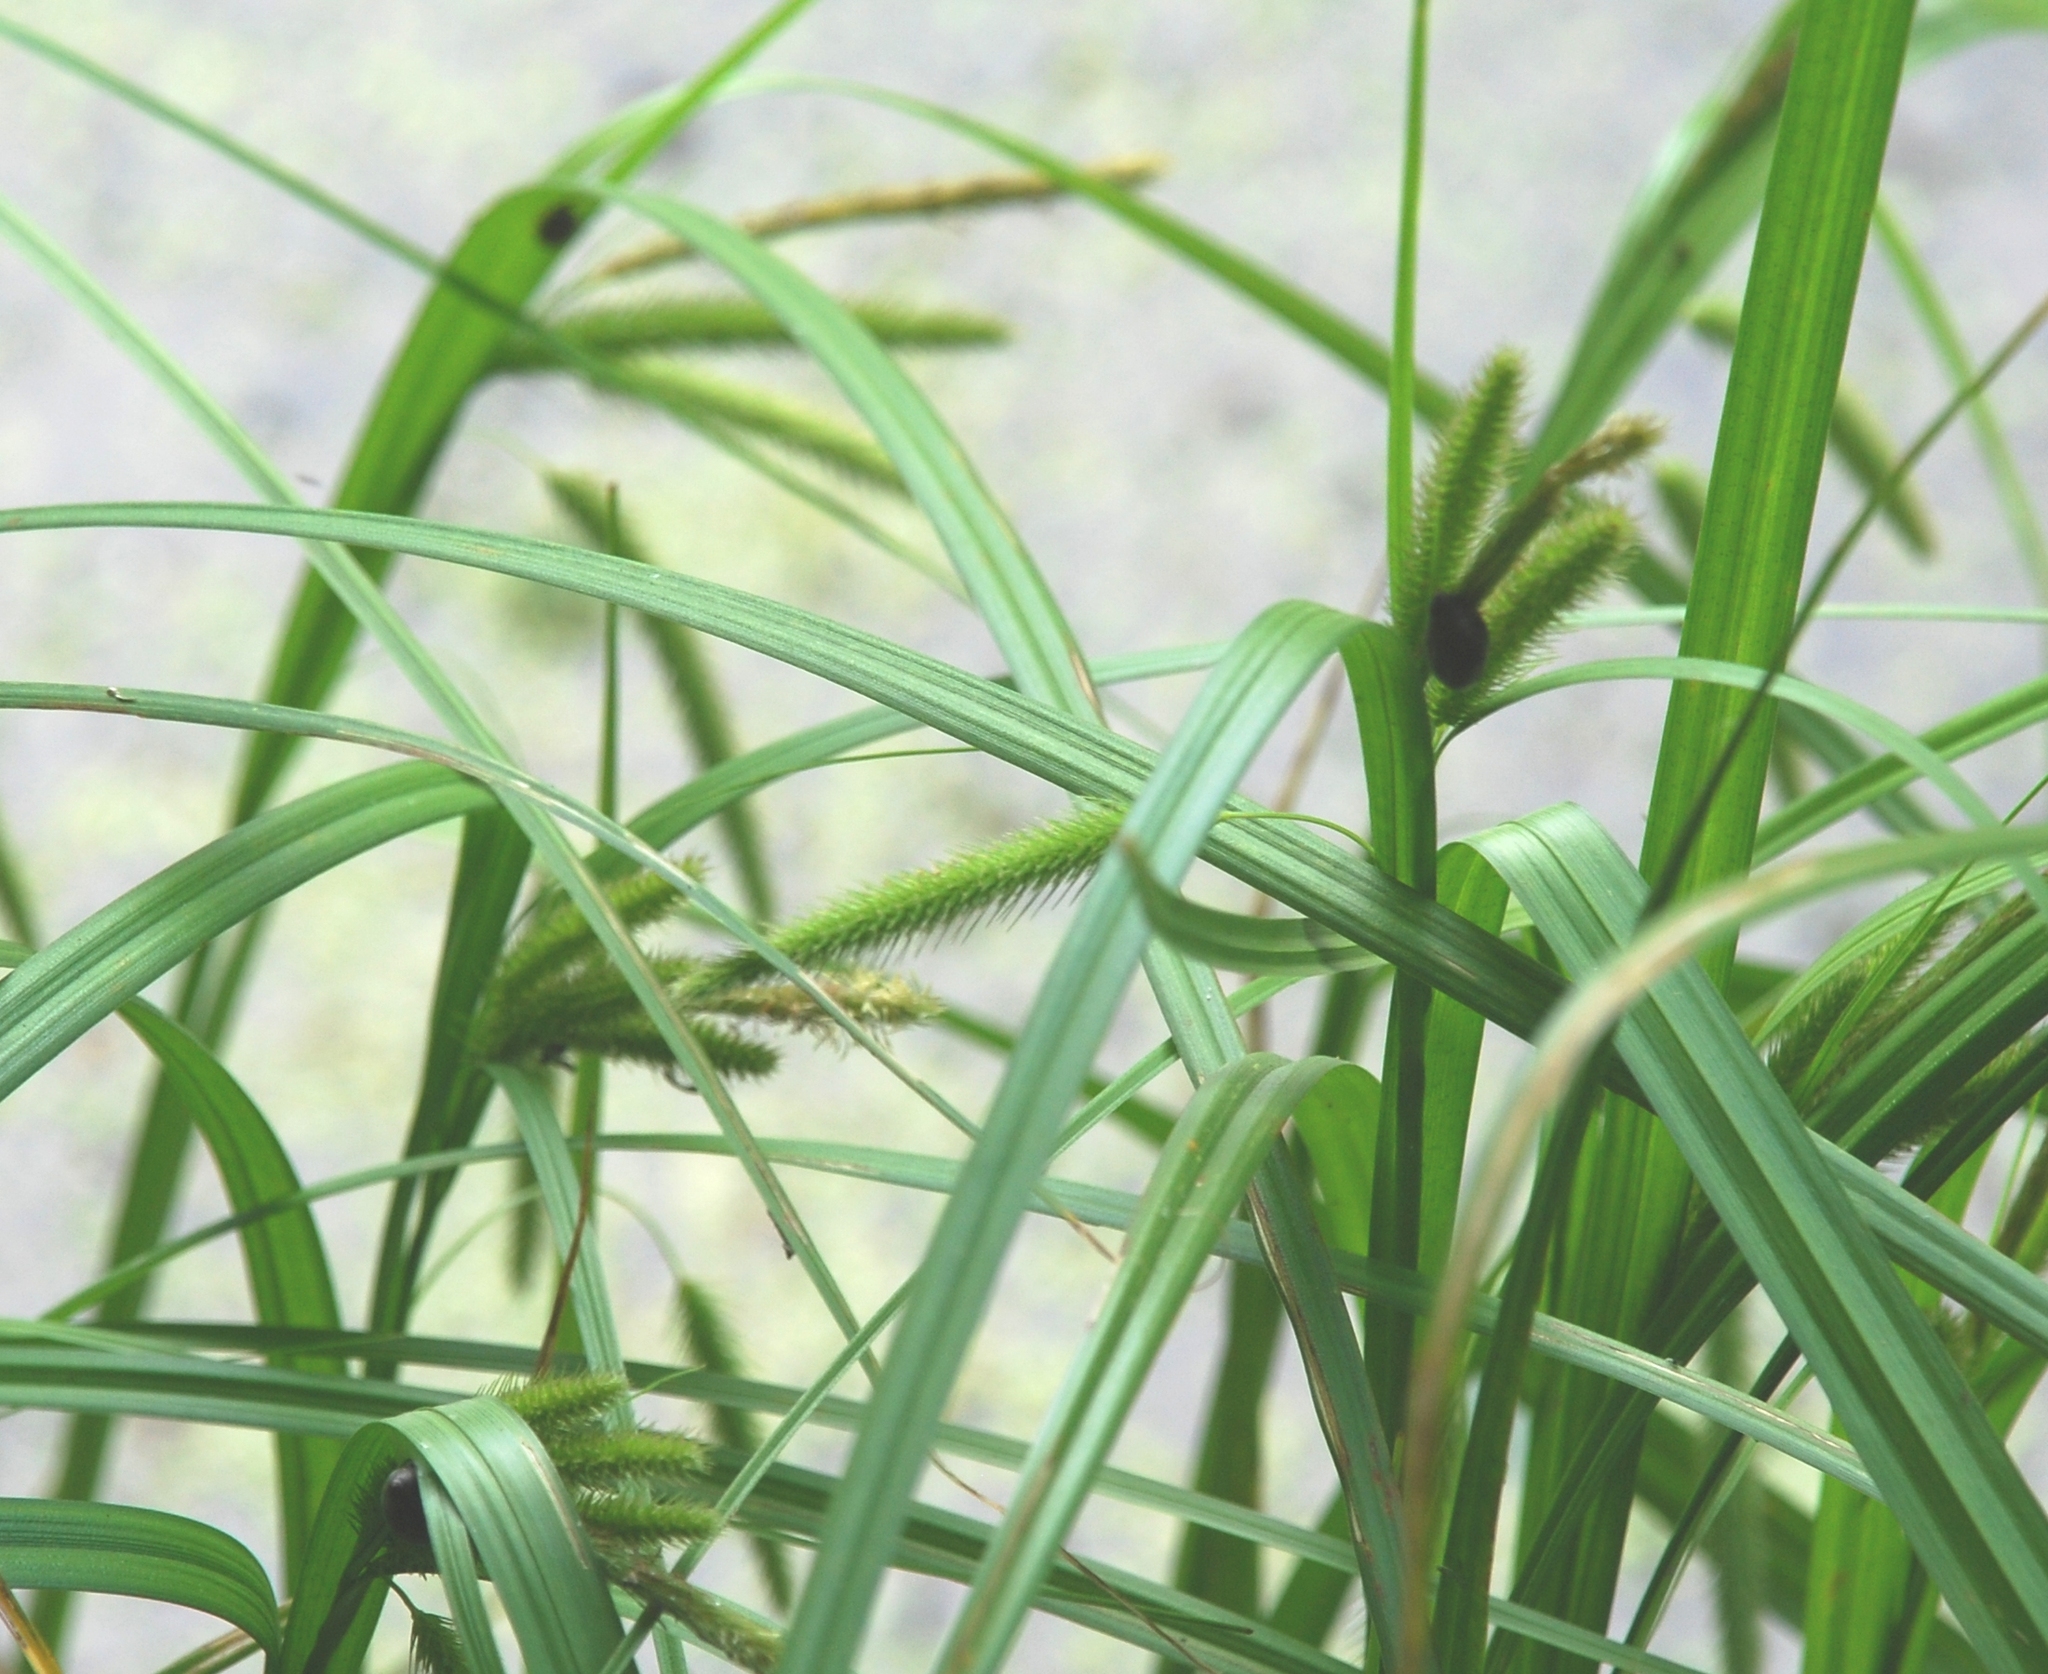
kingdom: Plantae
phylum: Tracheophyta
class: Liliopsida
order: Poales
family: Cyperaceae
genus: Carex
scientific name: Carex pseudocyperus
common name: Cyperus sedge
